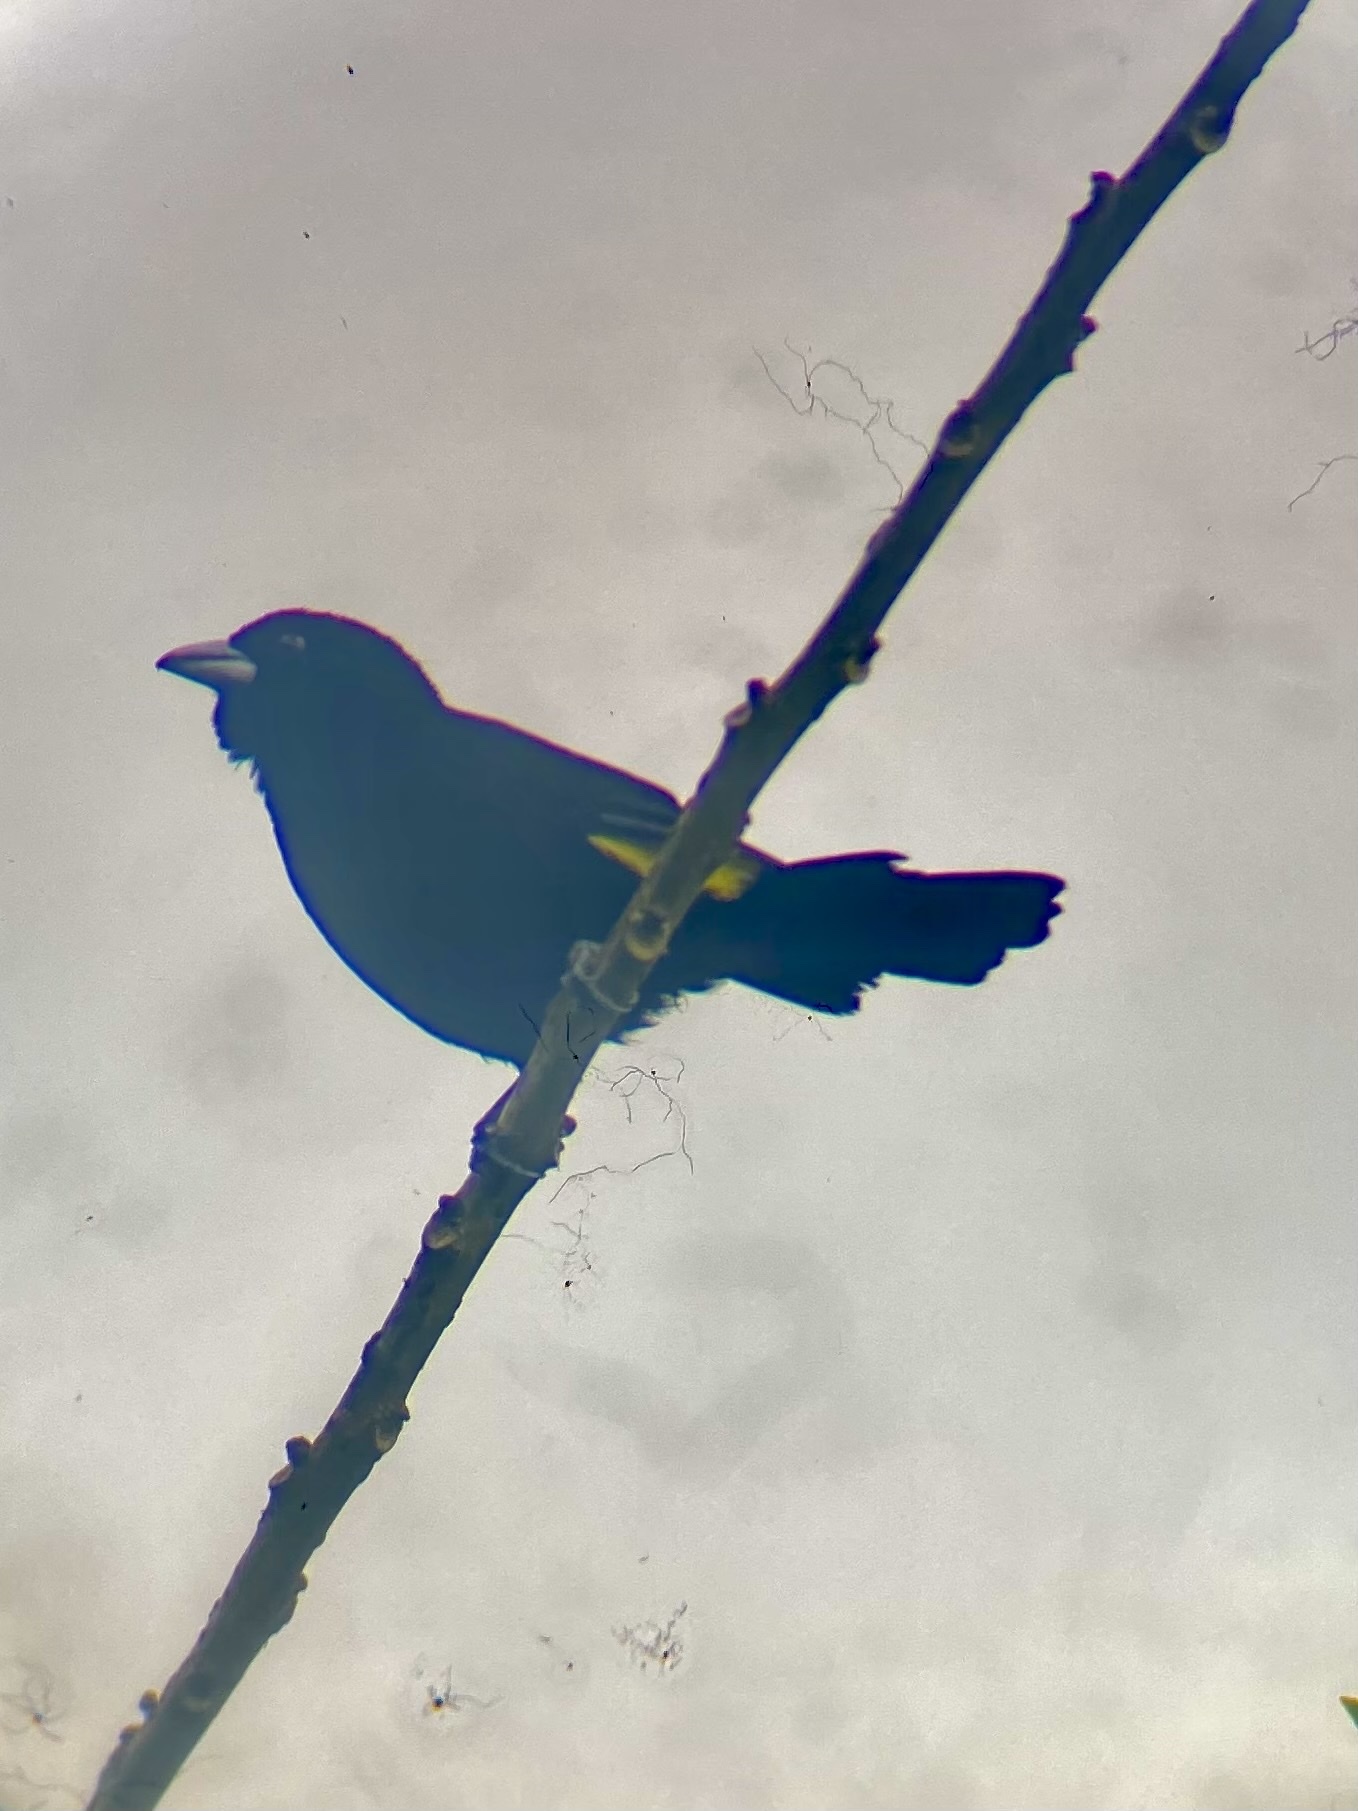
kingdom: Animalia
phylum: Chordata
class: Aves
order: Passeriformes
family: Thraupidae
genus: Ramphocelus
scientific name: Ramphocelus icteronotus
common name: Lemon-rumped tanager
